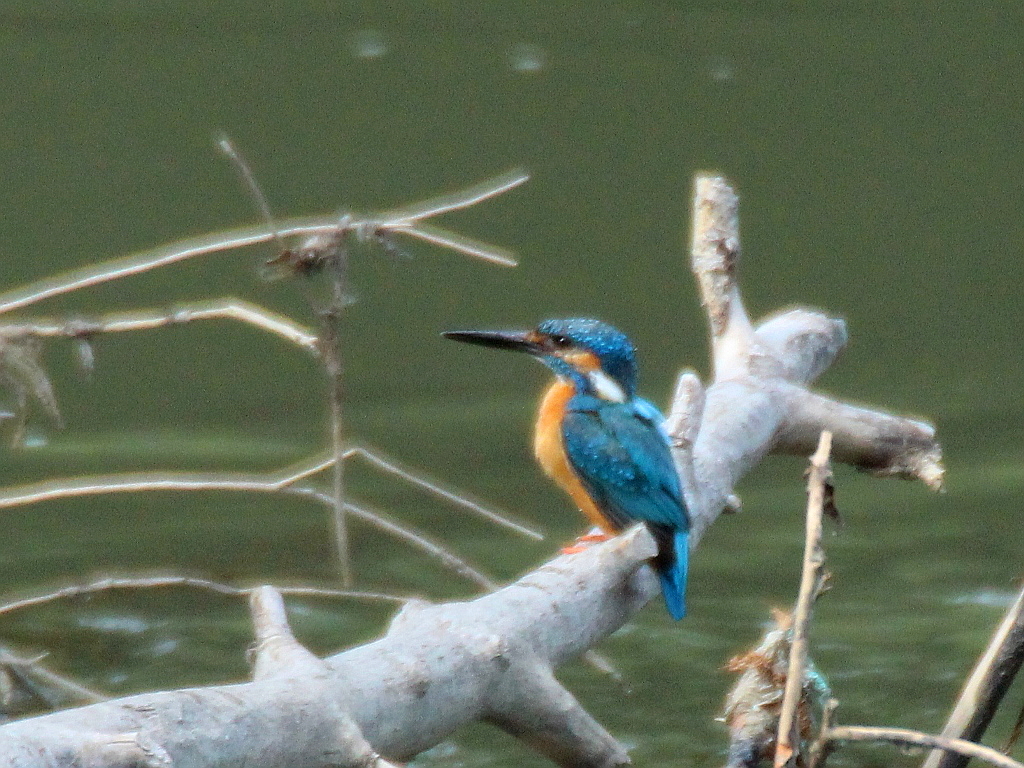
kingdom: Animalia
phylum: Chordata
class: Aves
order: Coraciiformes
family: Alcedinidae
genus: Alcedo
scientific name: Alcedo atthis
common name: Common kingfisher
